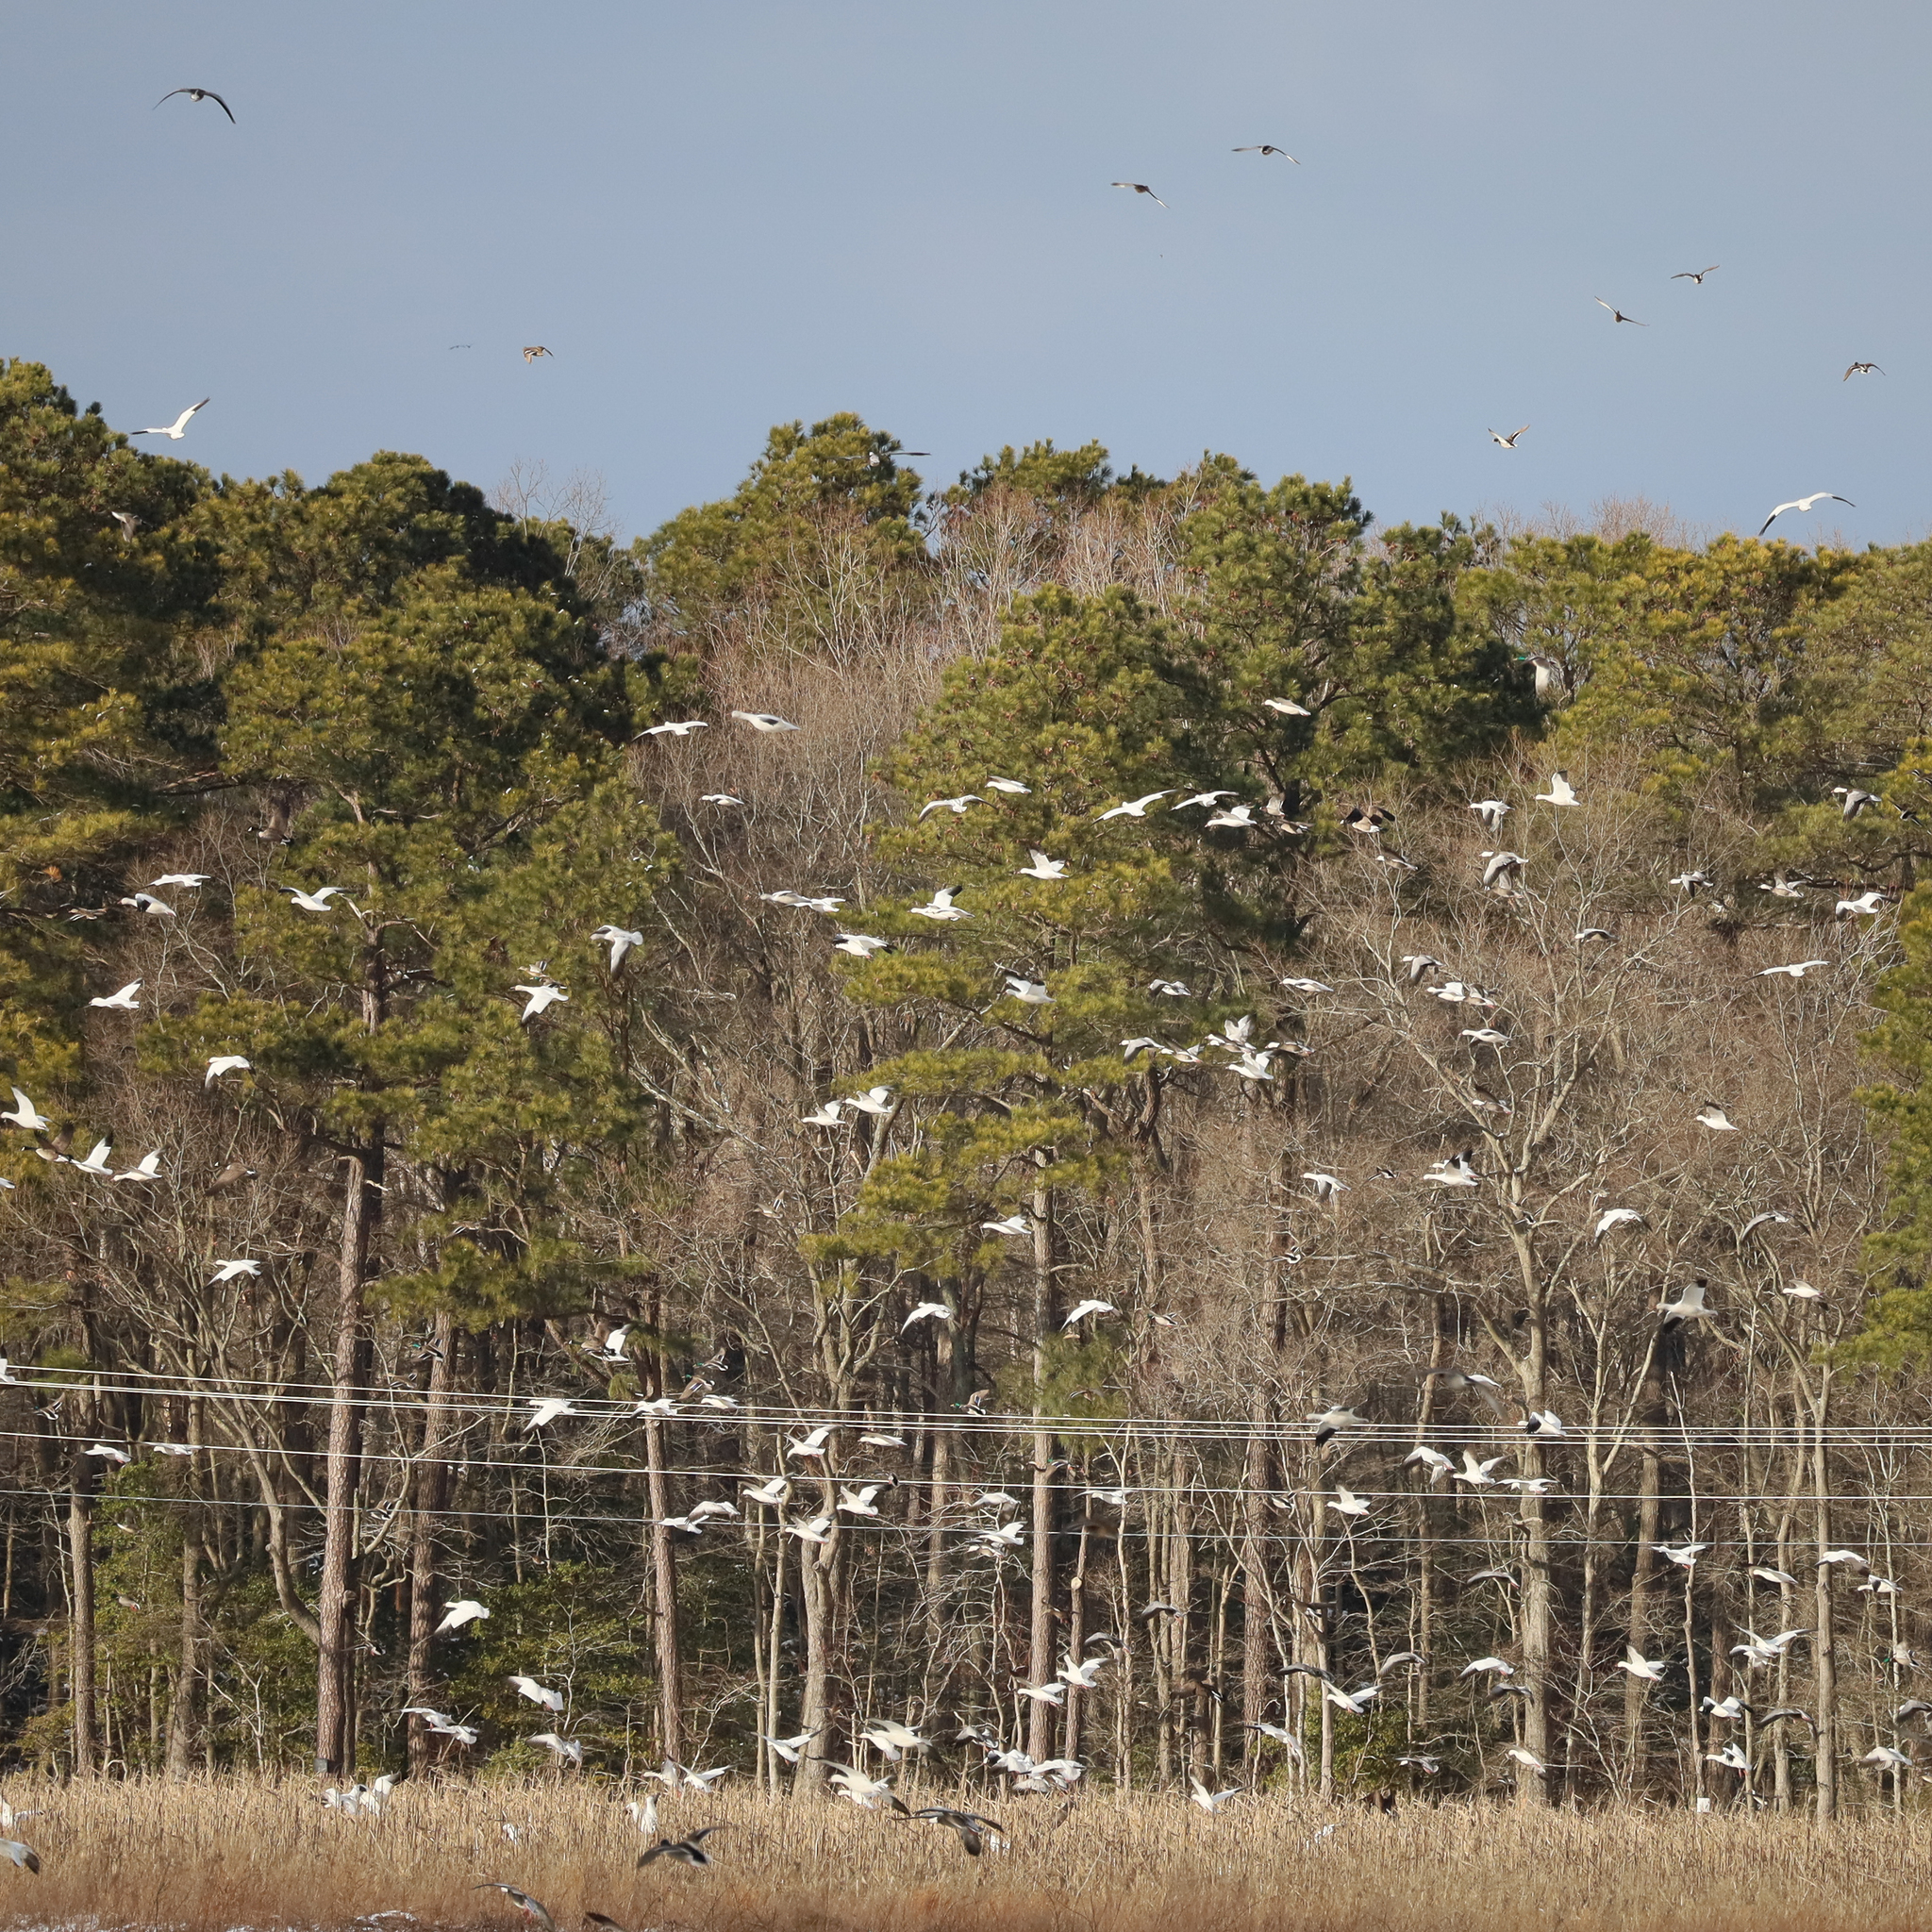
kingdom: Animalia
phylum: Chordata
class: Aves
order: Anseriformes
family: Anatidae
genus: Anser
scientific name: Anser caerulescens
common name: Snow goose
